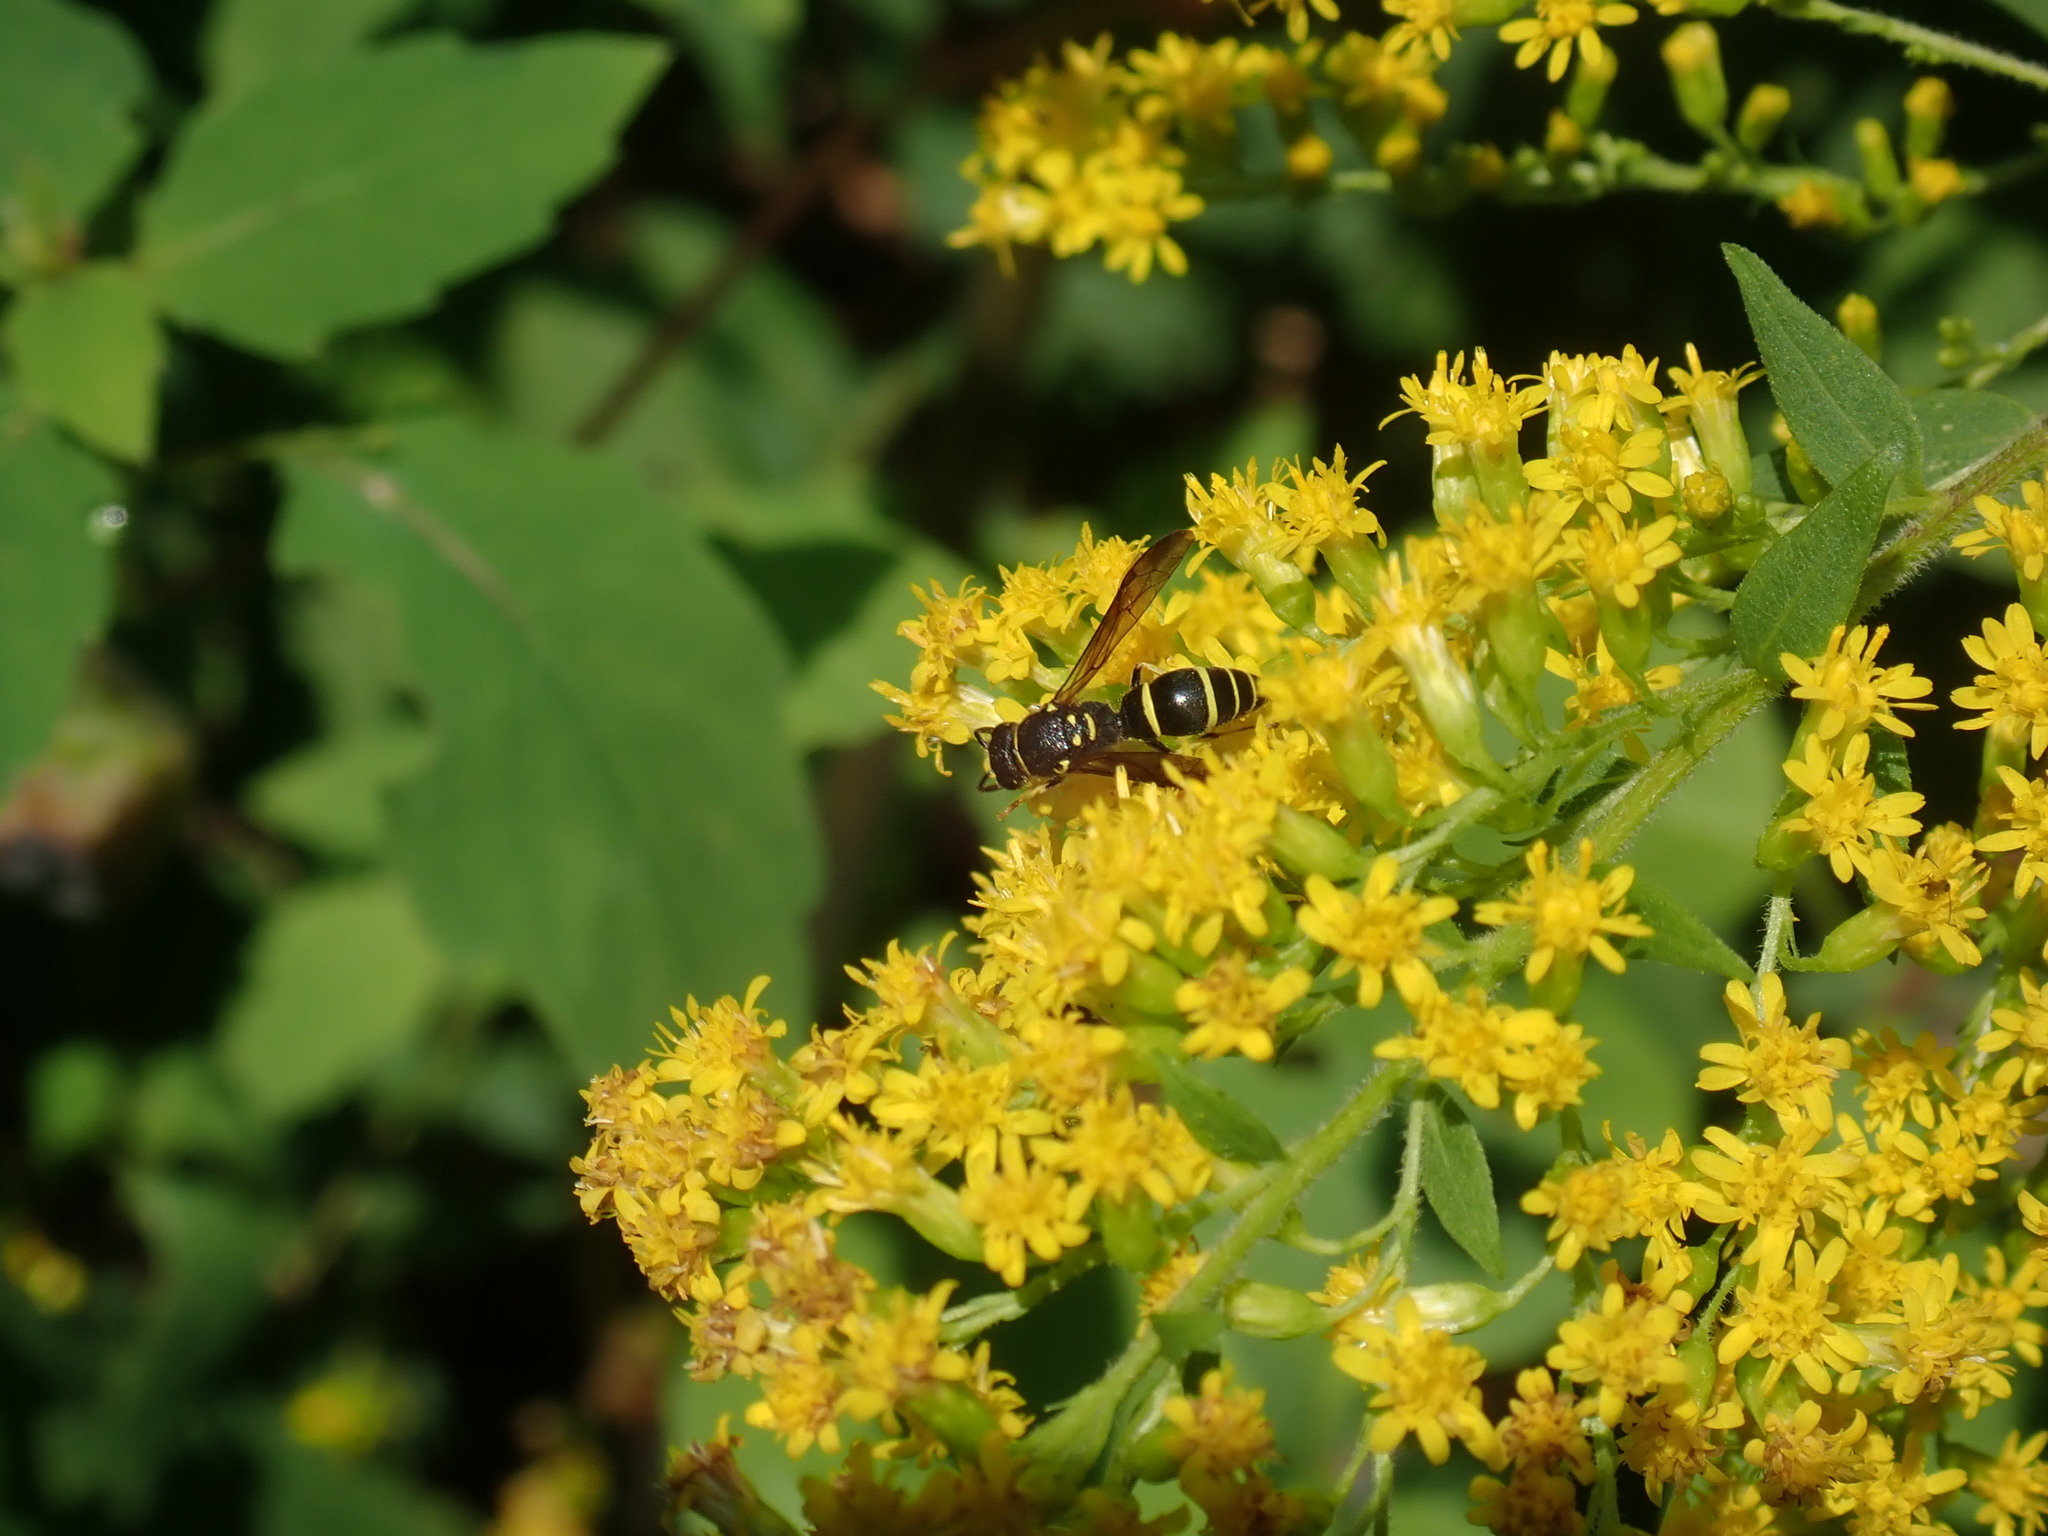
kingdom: Animalia
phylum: Arthropoda
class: Insecta
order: Hymenoptera
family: Vespidae
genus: Ancistrocerus
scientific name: Ancistrocerus adiabatus
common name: Bramble mason wasp
